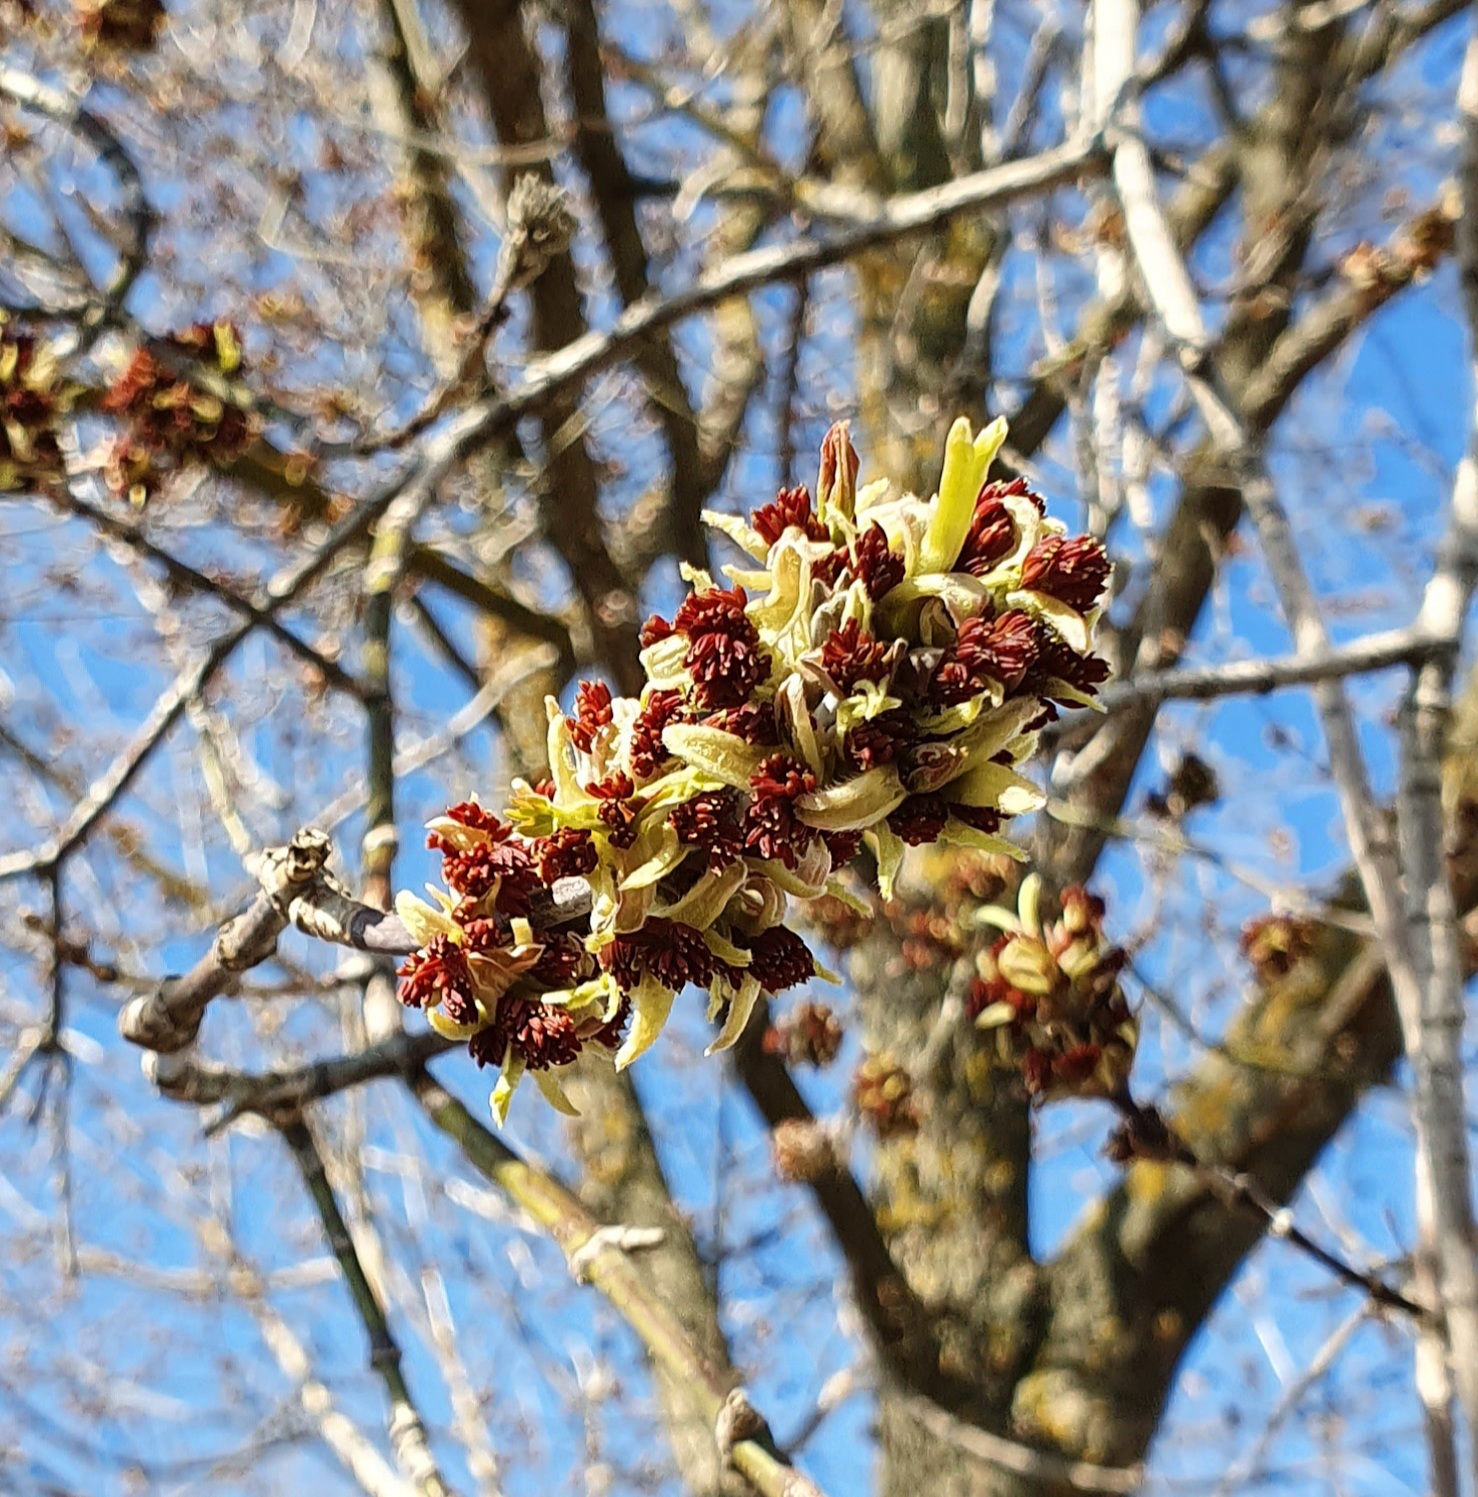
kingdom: Plantae
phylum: Tracheophyta
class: Magnoliopsida
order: Sapindales
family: Sapindaceae
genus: Acer
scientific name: Acer negundo
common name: Ashleaf maple
